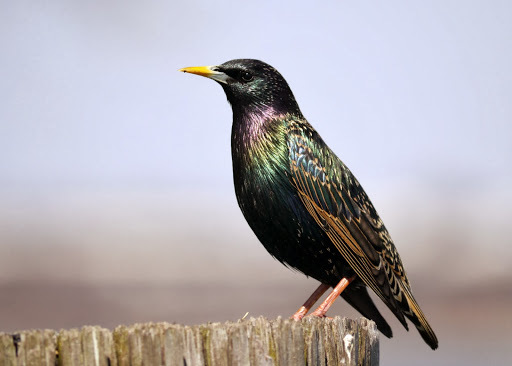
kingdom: Animalia
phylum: Chordata
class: Aves
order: Passeriformes
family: Sturnidae
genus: Sturnus
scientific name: Sturnus vulgaris
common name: Common starling
